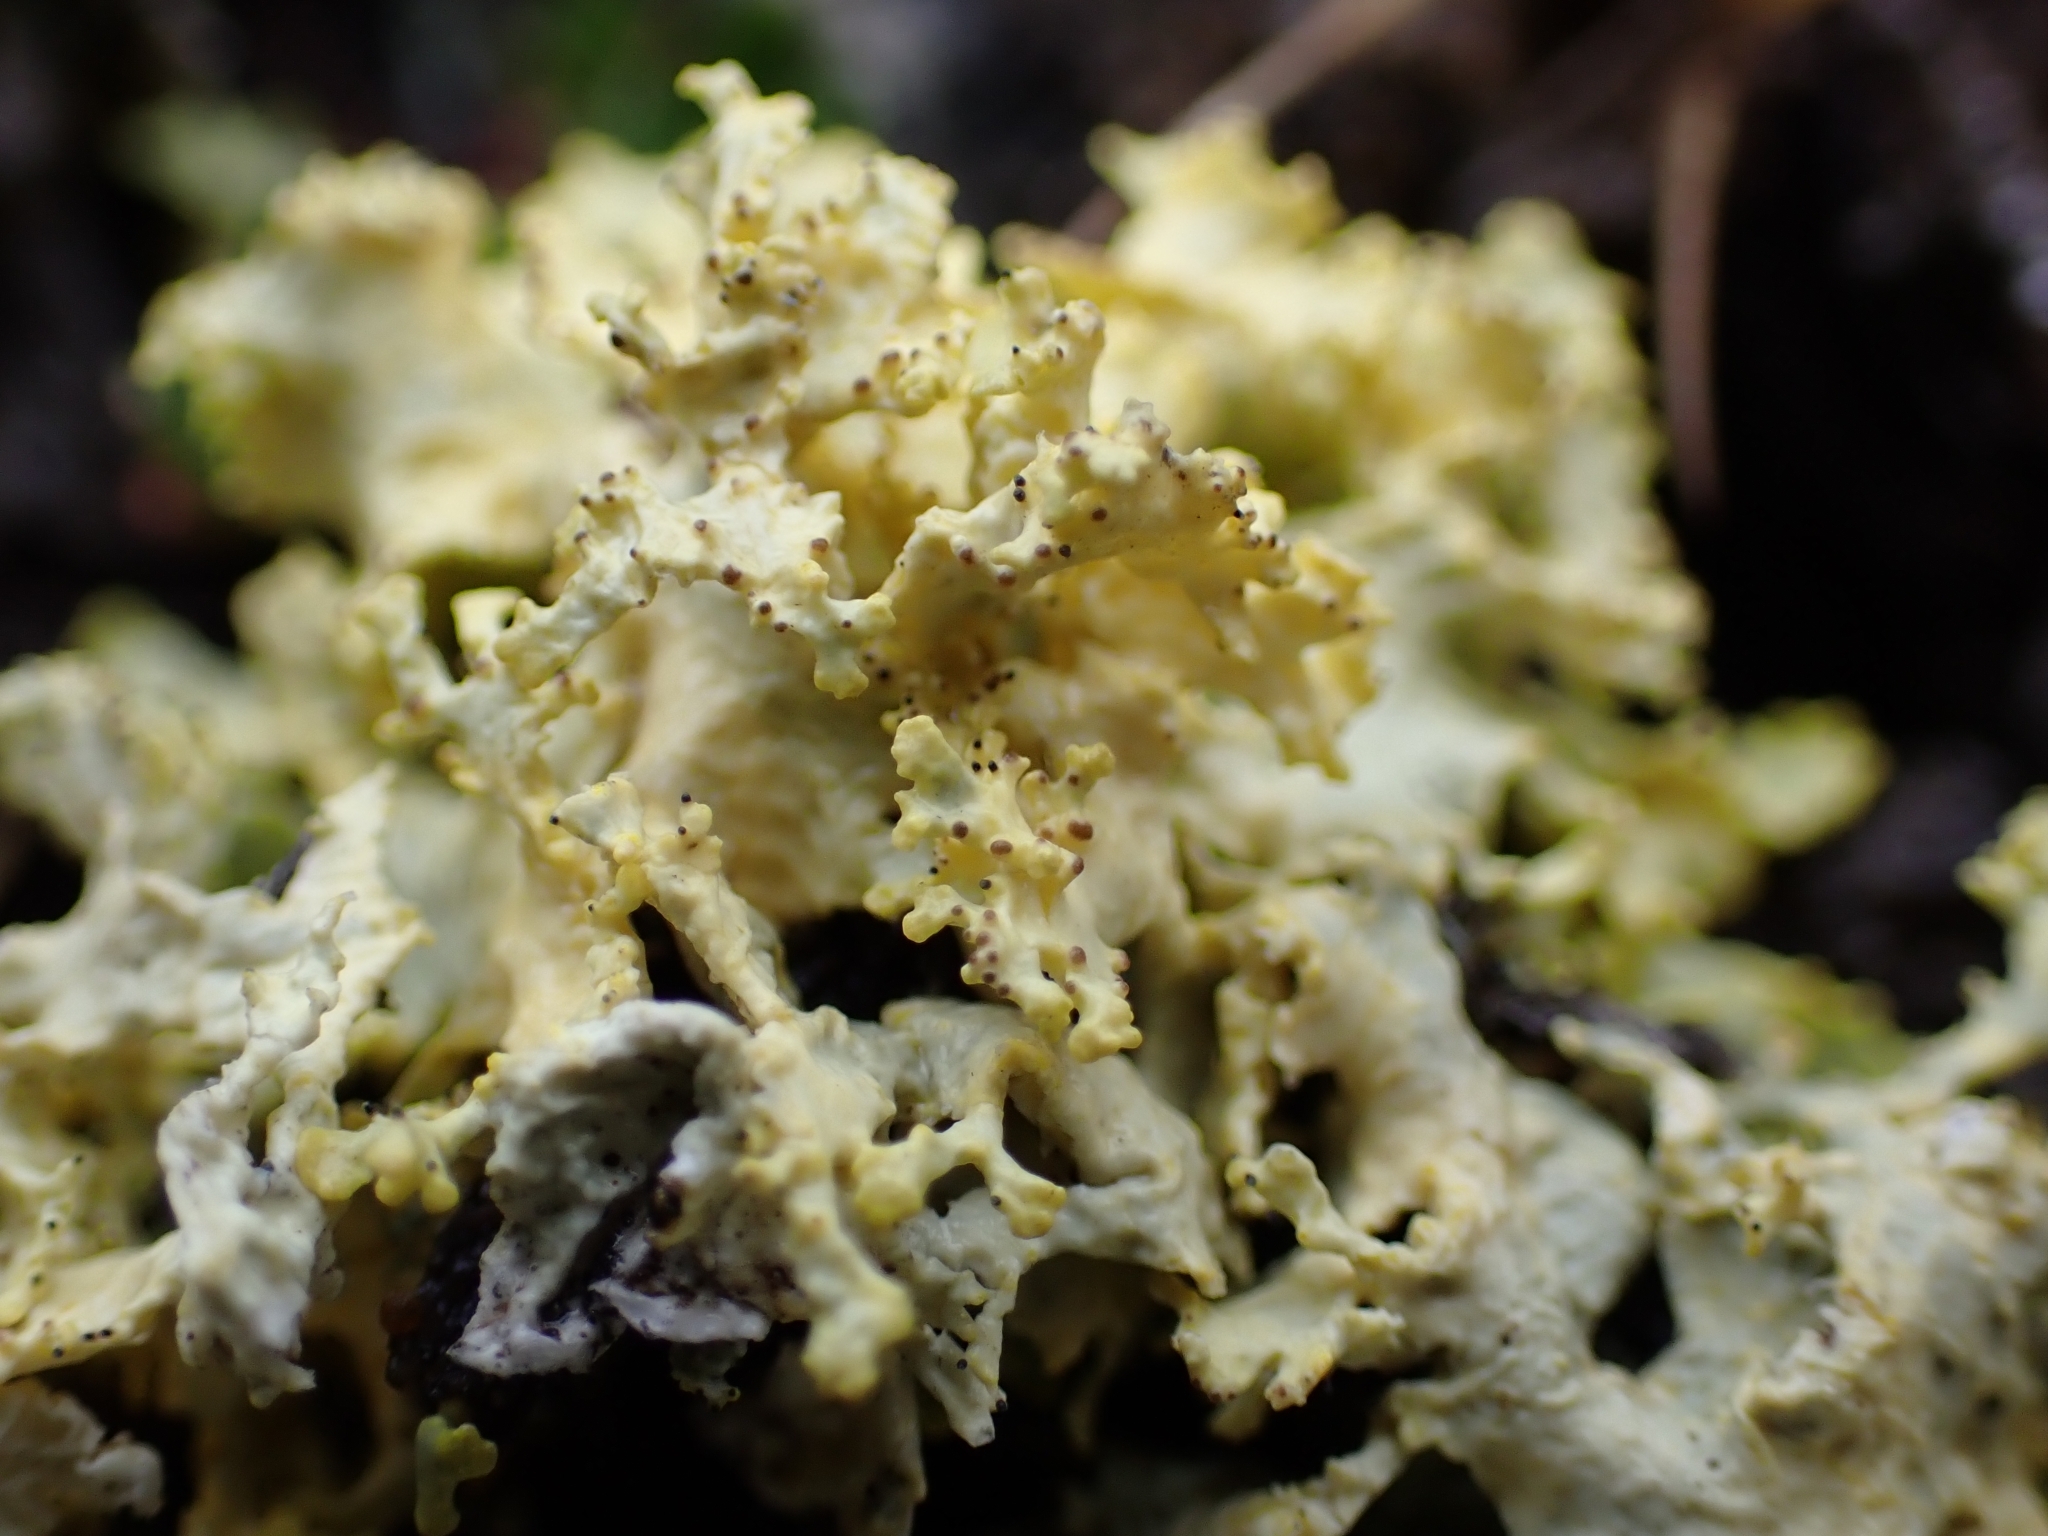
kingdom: Fungi
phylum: Ascomycota
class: Lecanoromycetes
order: Lecanorales
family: Parmeliaceae
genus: Vulpicida
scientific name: Vulpicida tubulosus
